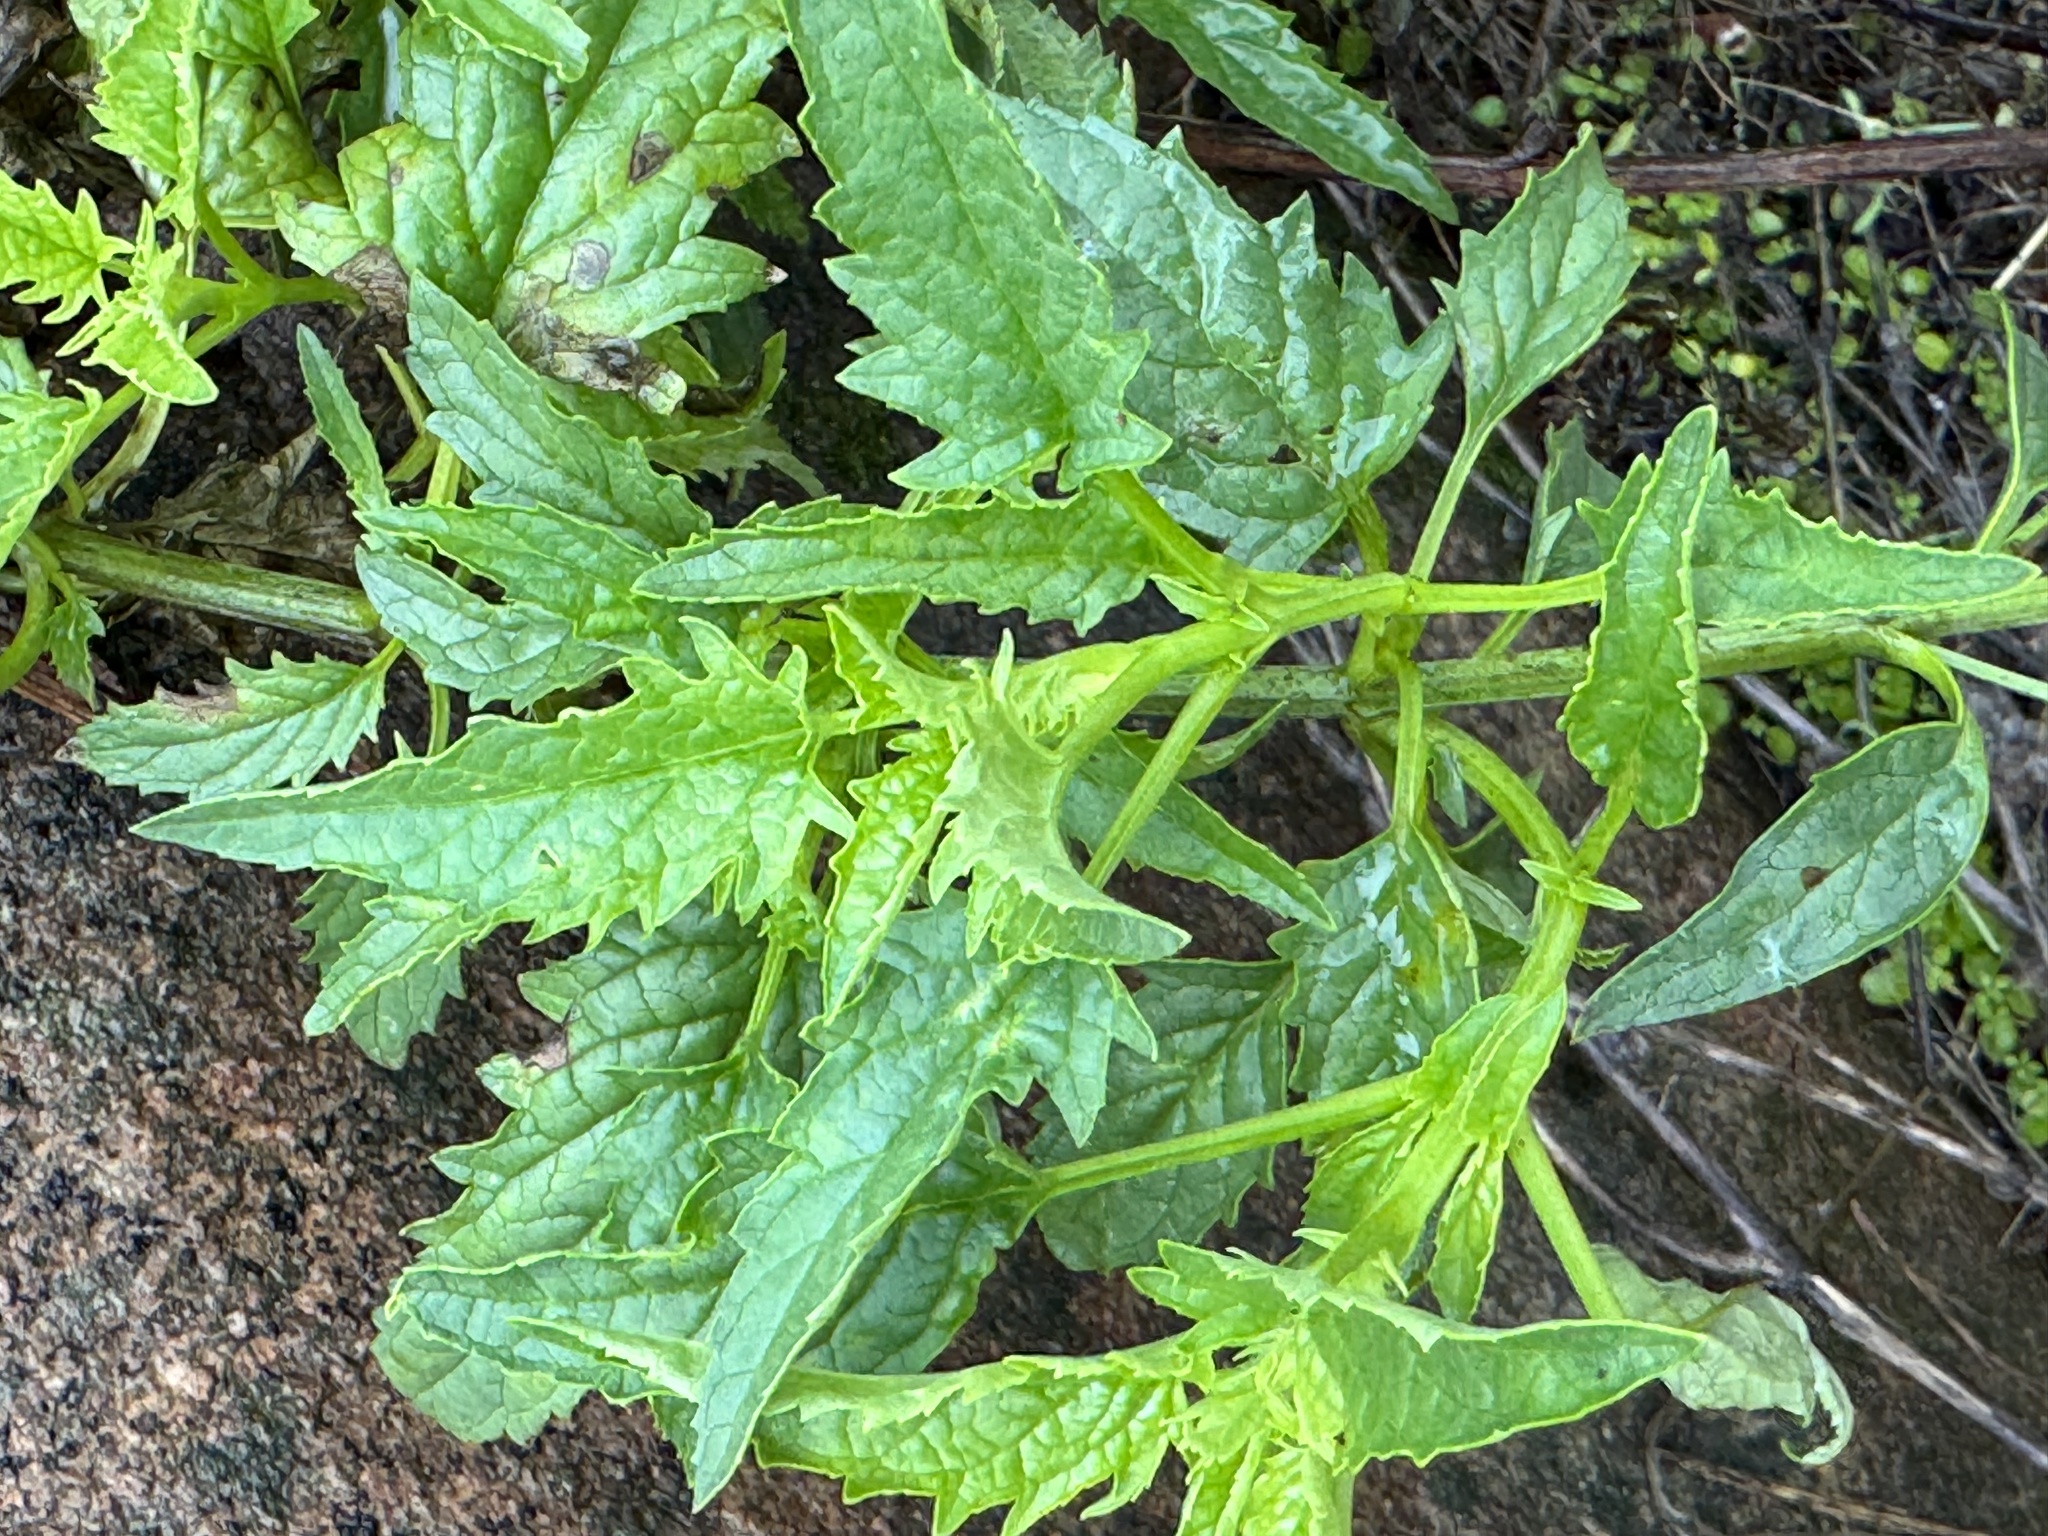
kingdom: Plantae
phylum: Tracheophyta
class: Magnoliopsida
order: Lamiales
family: Scrophulariaceae
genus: Scrophularia
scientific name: Scrophularia californica
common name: California figwort
